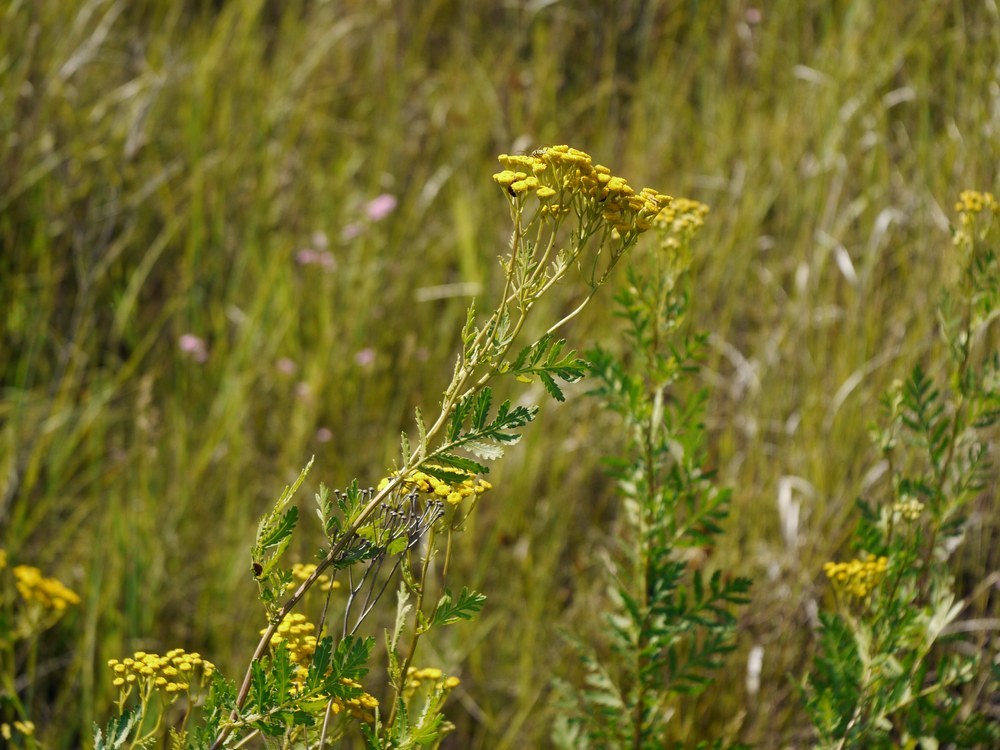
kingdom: Plantae
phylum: Tracheophyta
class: Magnoliopsida
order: Asterales
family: Asteraceae
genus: Tanacetum
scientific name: Tanacetum vulgare
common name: Common tansy
